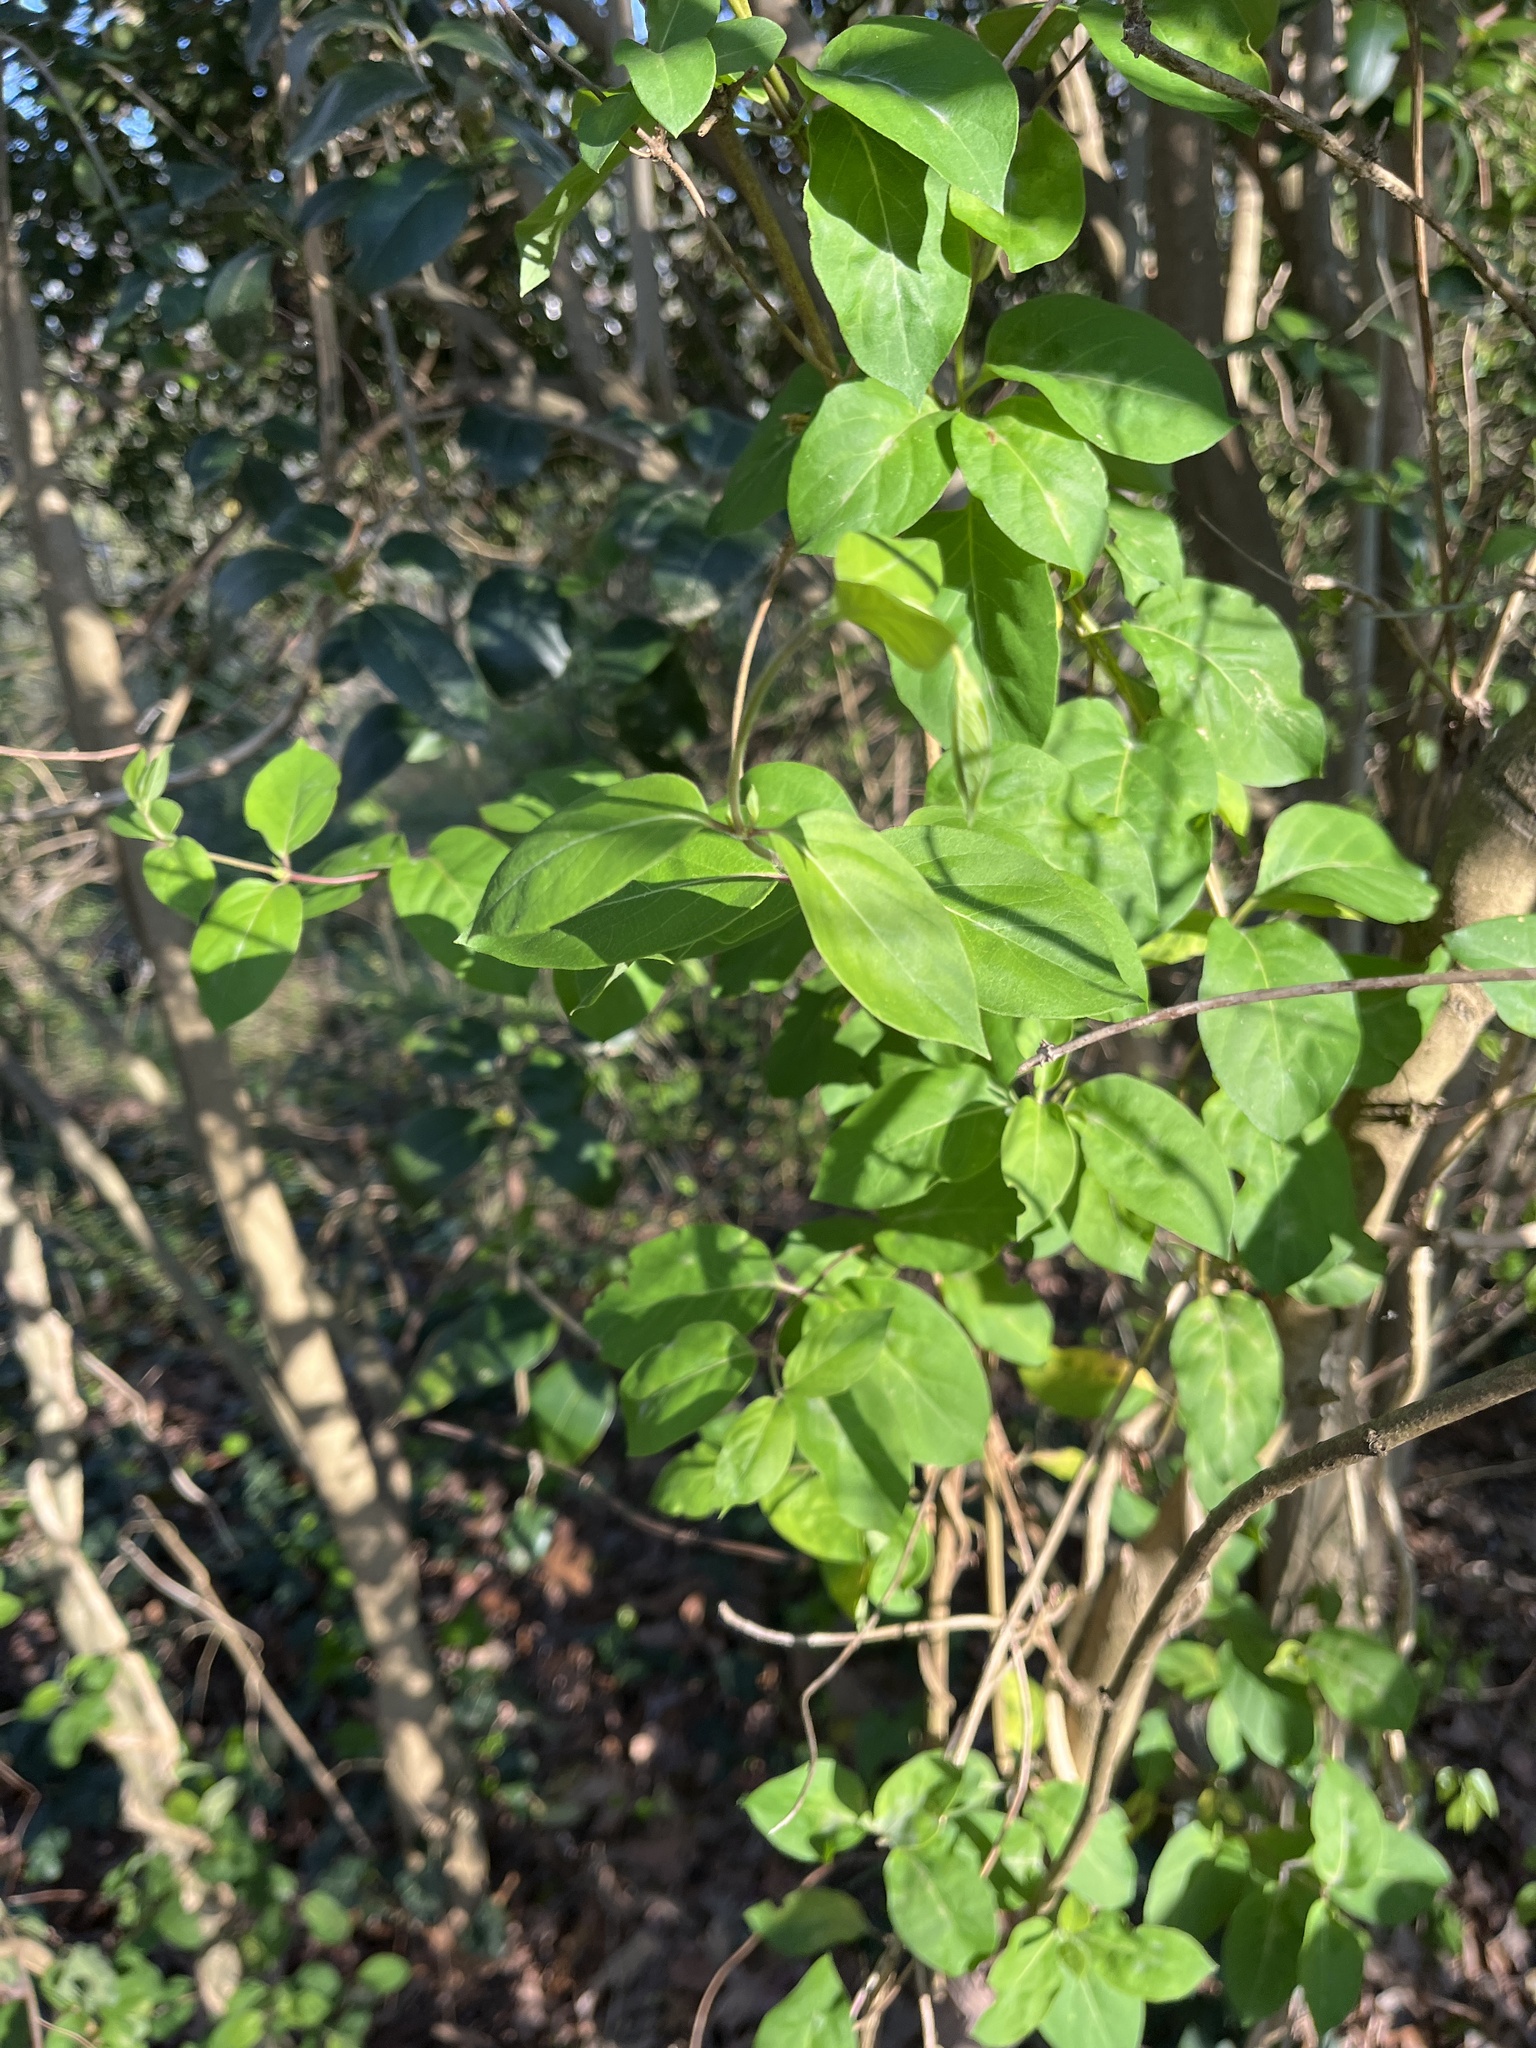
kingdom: Plantae
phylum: Tracheophyta
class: Magnoliopsida
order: Dipsacales
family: Caprifoliaceae
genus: Lonicera
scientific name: Lonicera japonica
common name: Japanese honeysuckle
